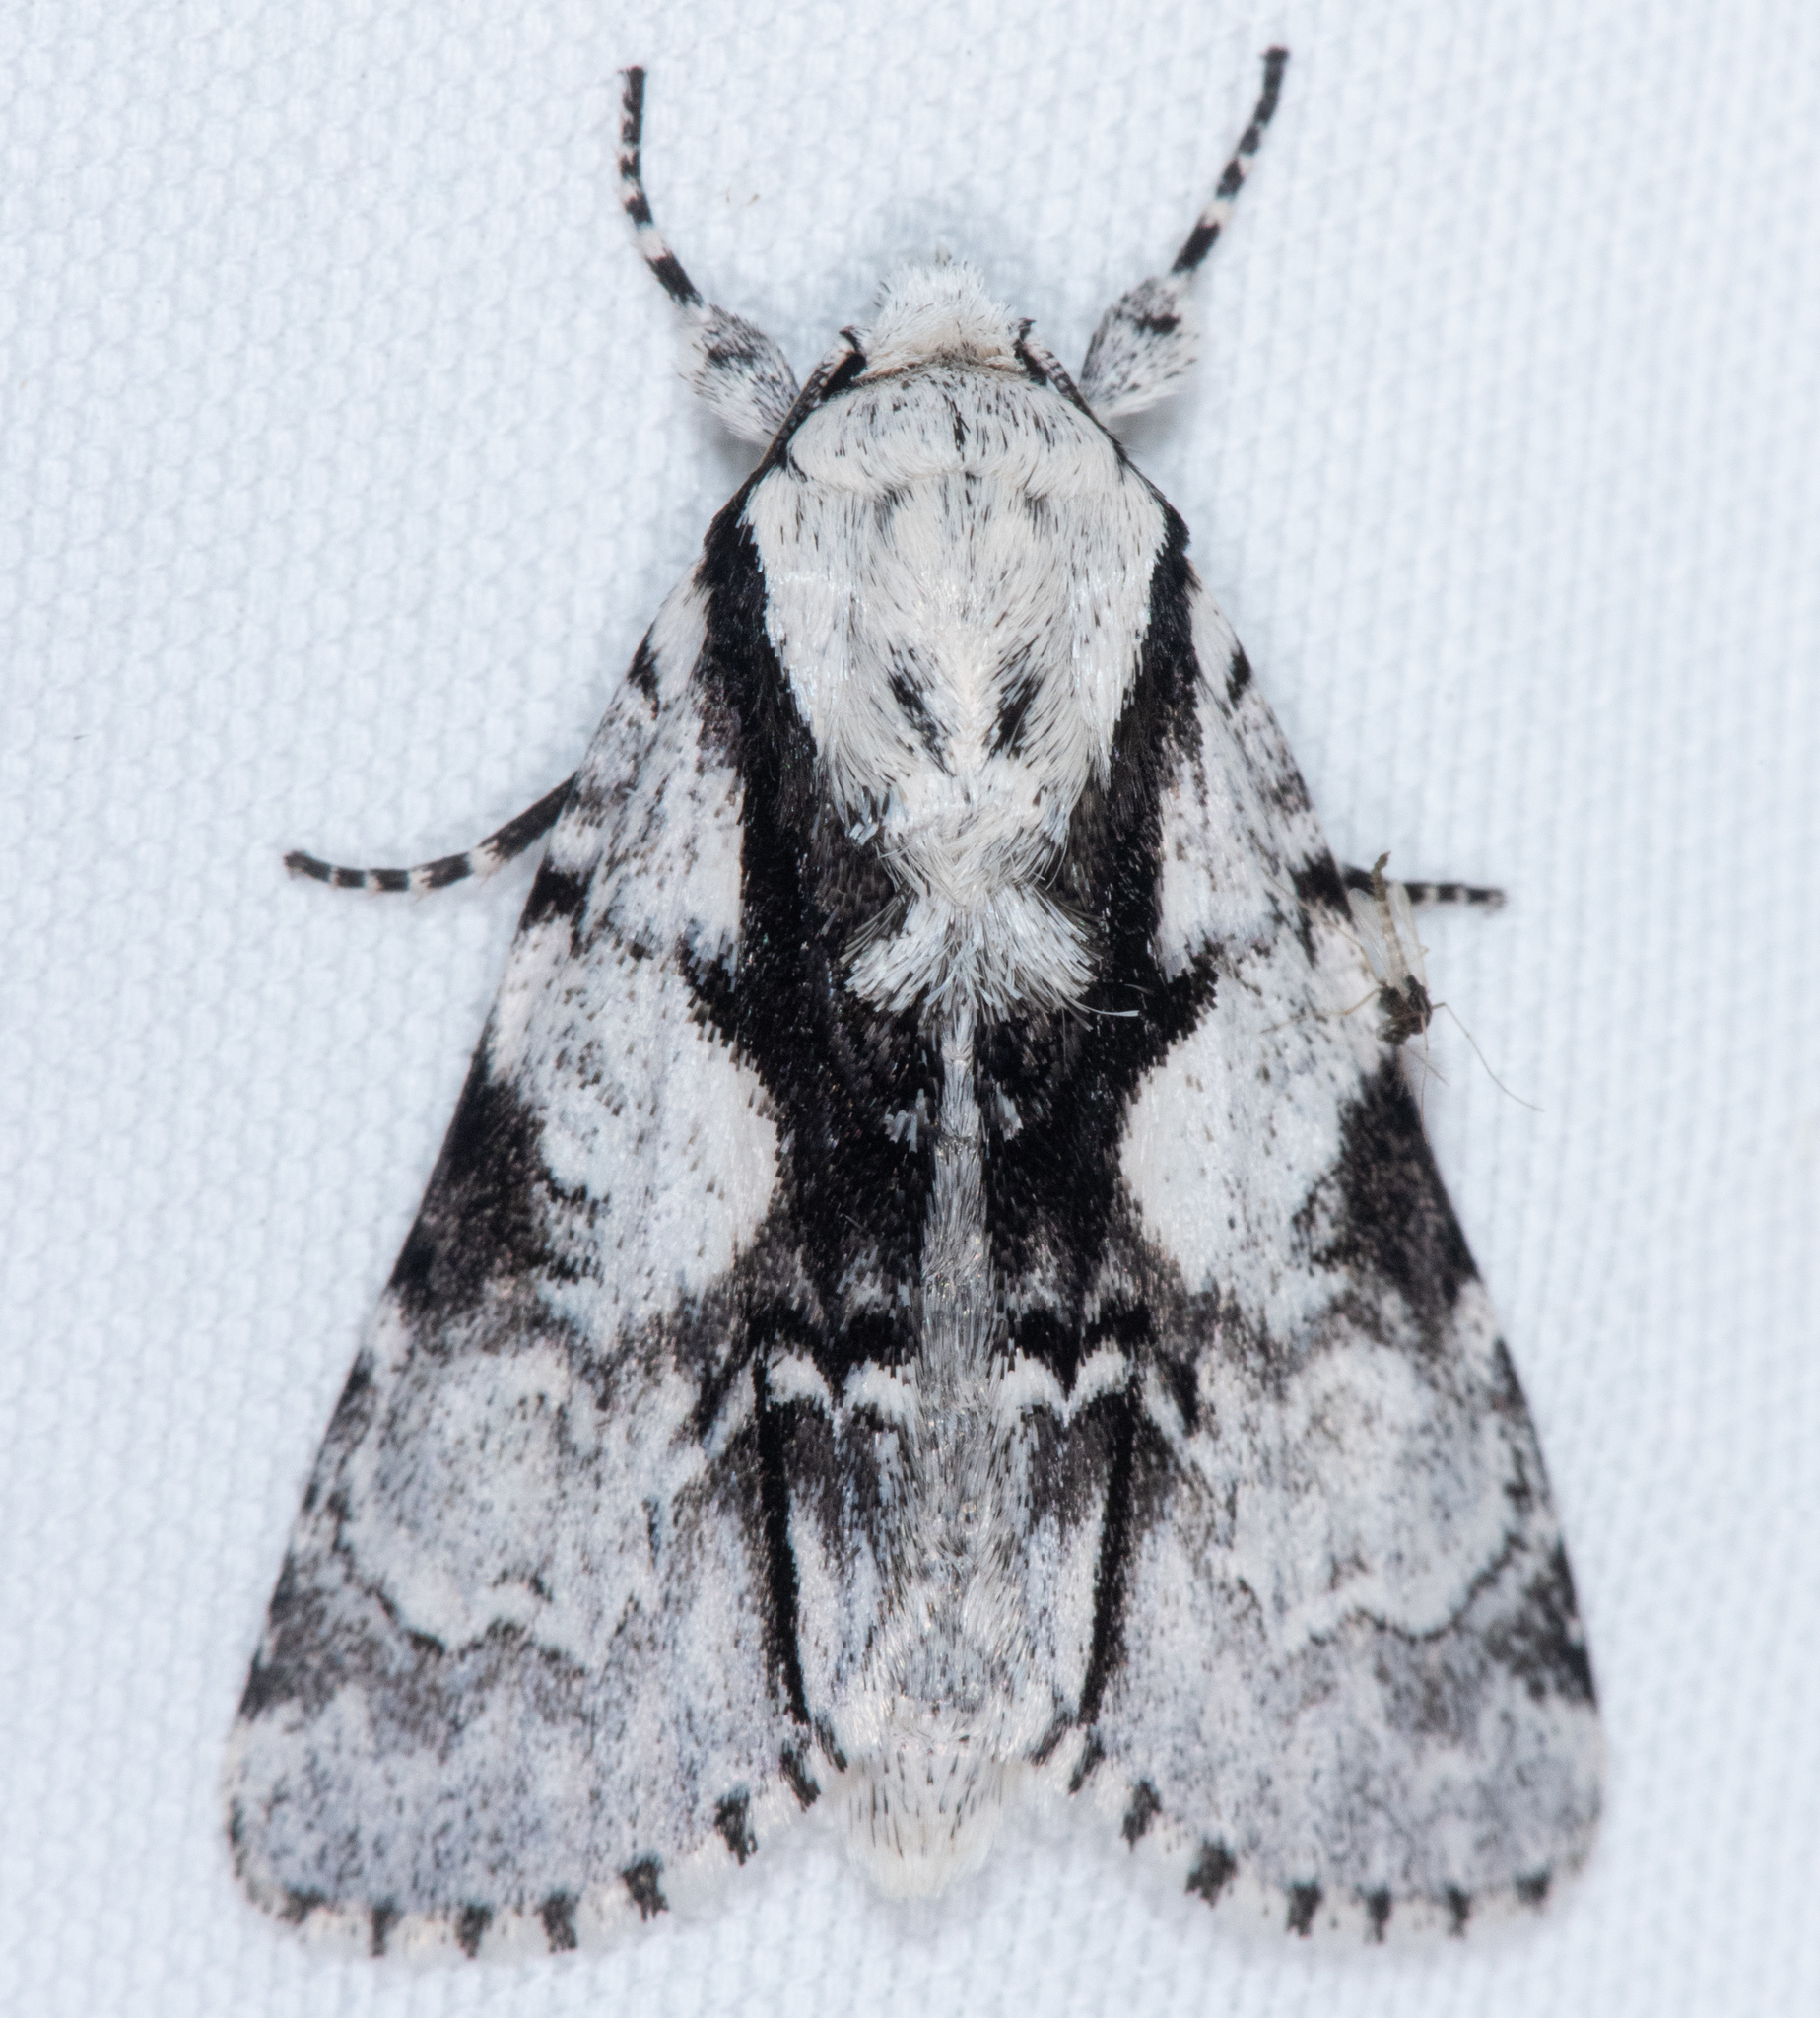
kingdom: Animalia
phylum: Arthropoda
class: Insecta
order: Lepidoptera
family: Noctuidae
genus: Acronicta
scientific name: Acronicta funeralis
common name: Funerary dagger
